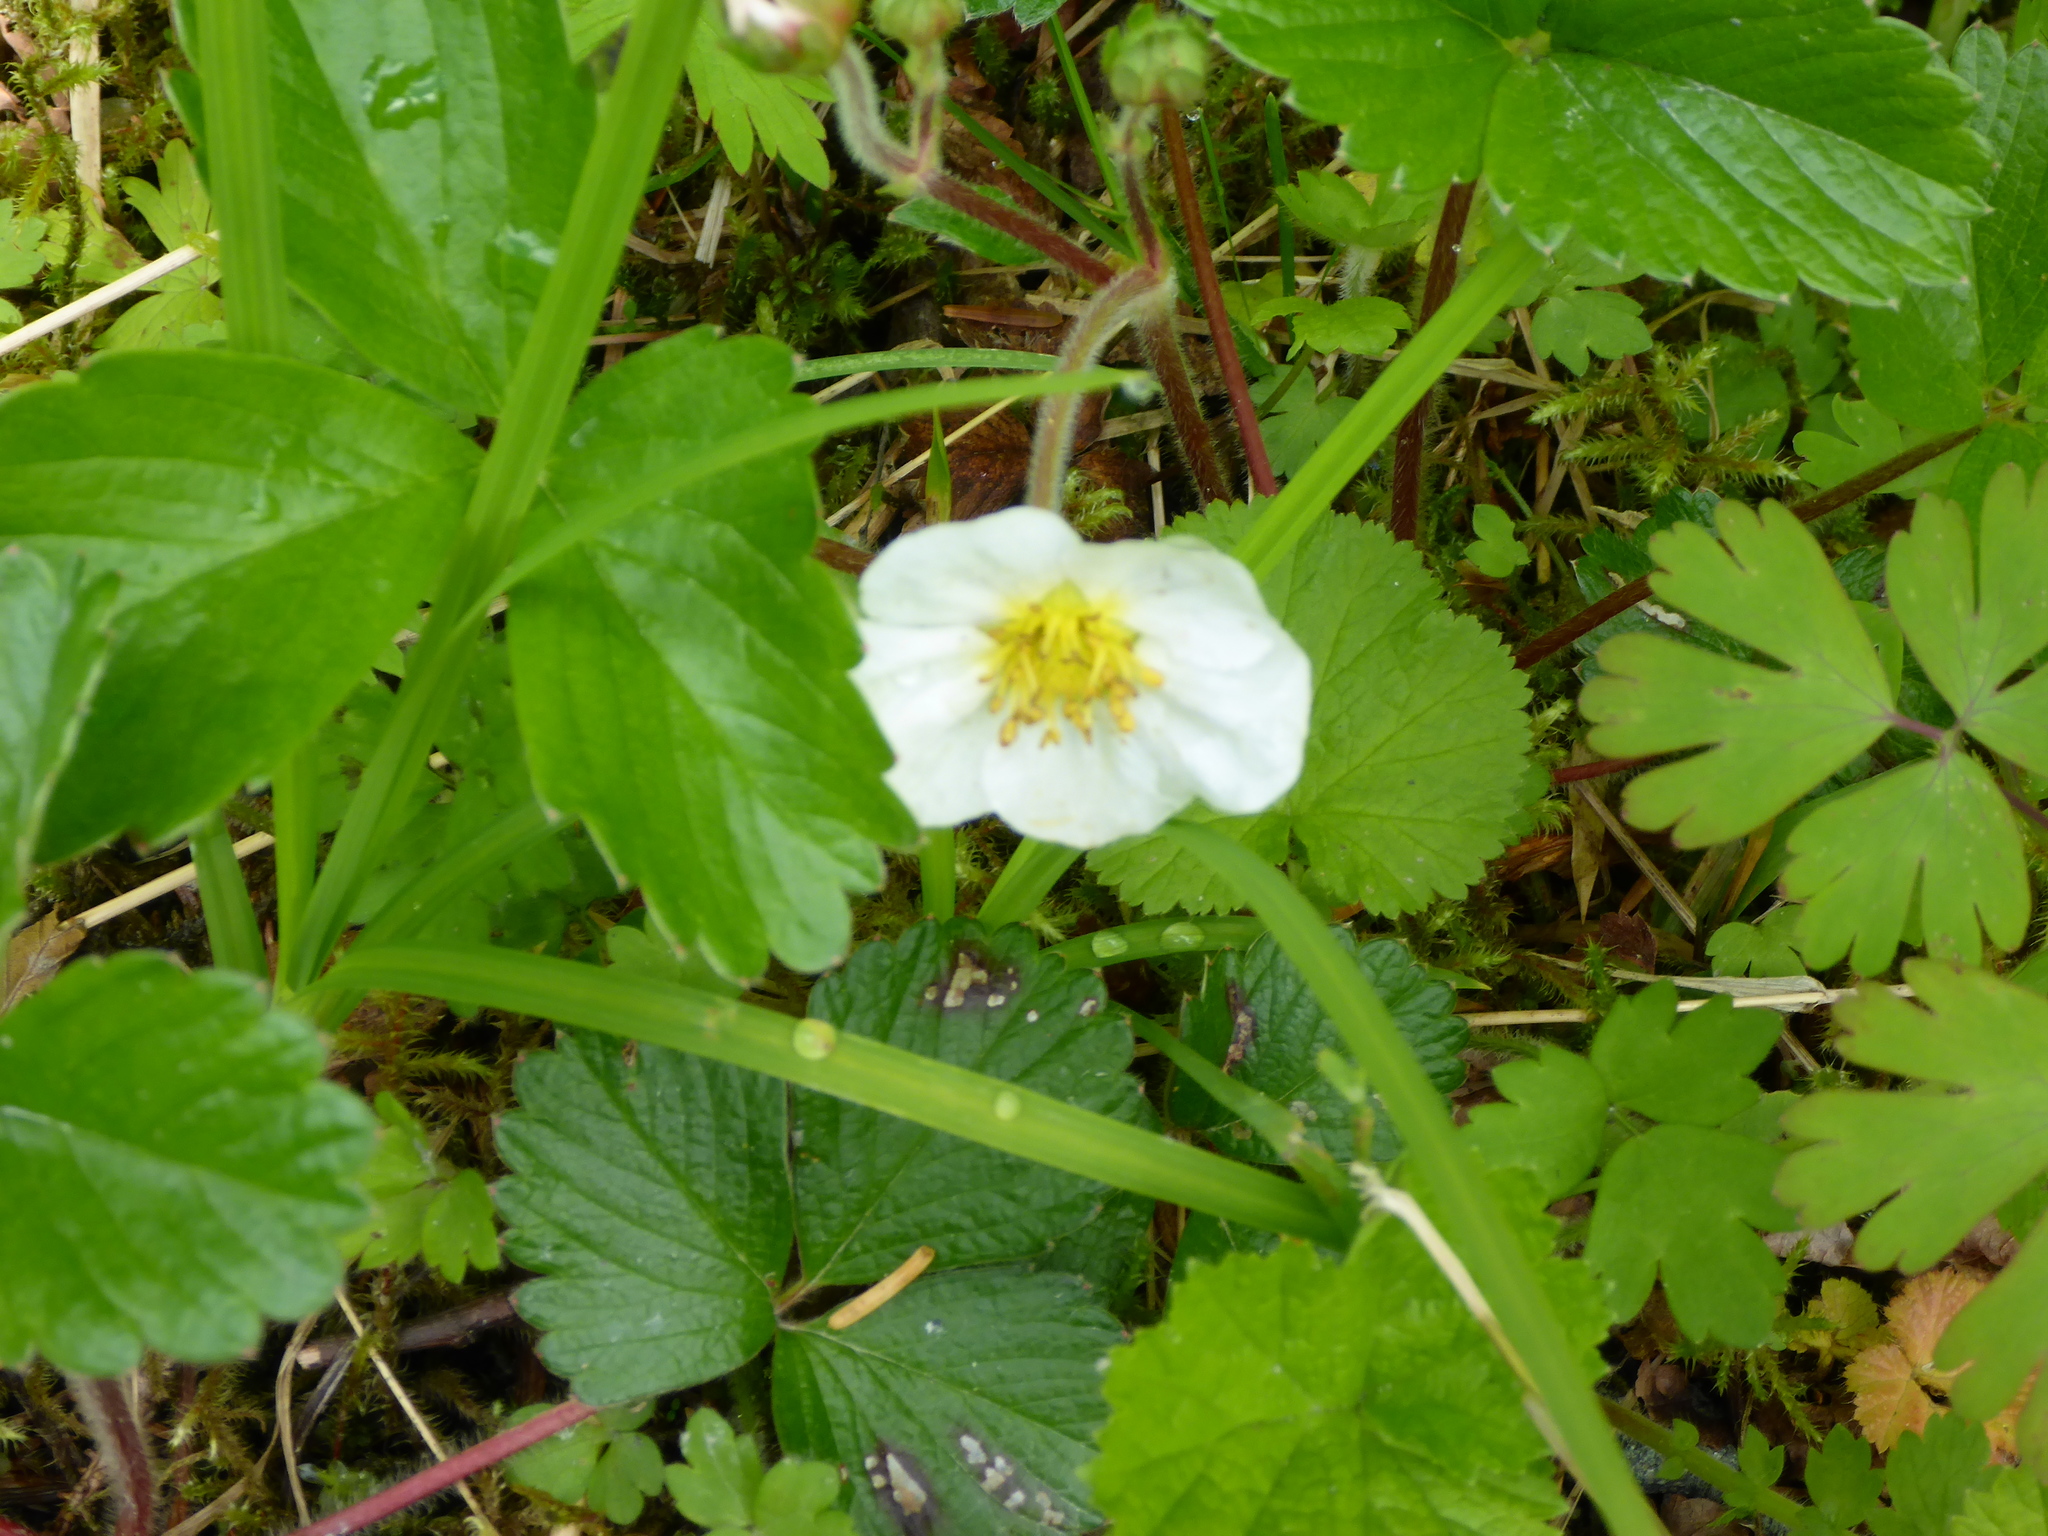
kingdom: Plantae
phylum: Tracheophyta
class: Magnoliopsida
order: Rosales
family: Rosaceae
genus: Fragaria
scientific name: Fragaria chiloensis
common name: Beach strawberry
